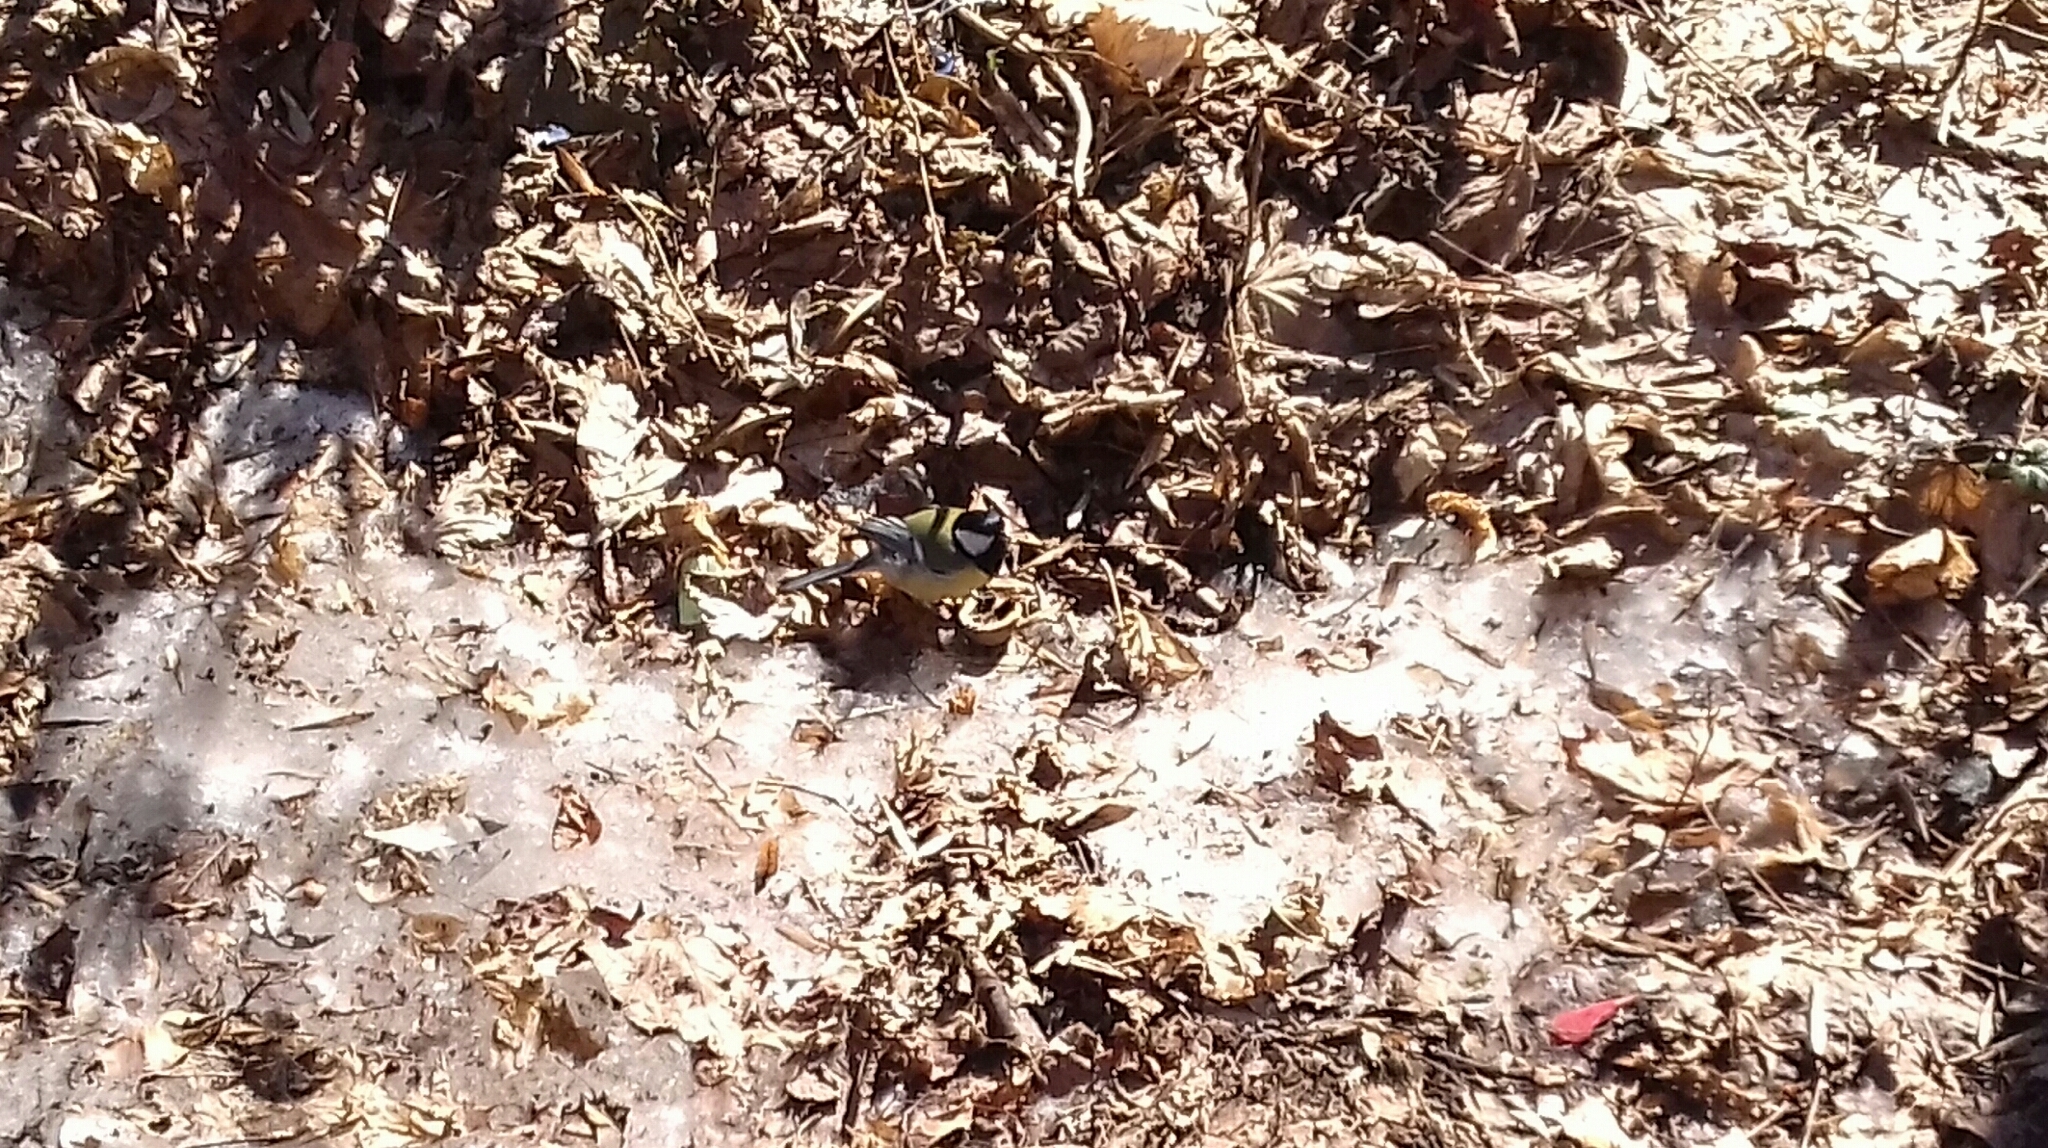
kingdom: Animalia
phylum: Chordata
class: Aves
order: Passeriformes
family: Paridae
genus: Parus
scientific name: Parus major
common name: Great tit
